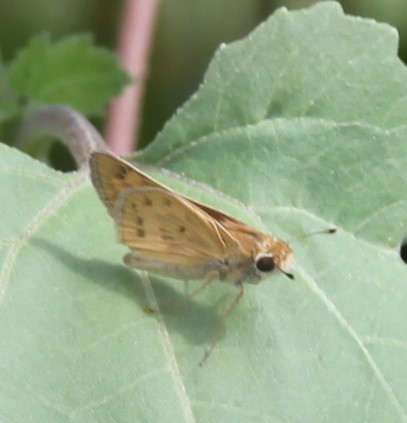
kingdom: Animalia
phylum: Arthropoda
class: Insecta
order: Lepidoptera
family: Hesperiidae
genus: Hylephila
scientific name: Hylephila phyleus
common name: Fiery skipper
